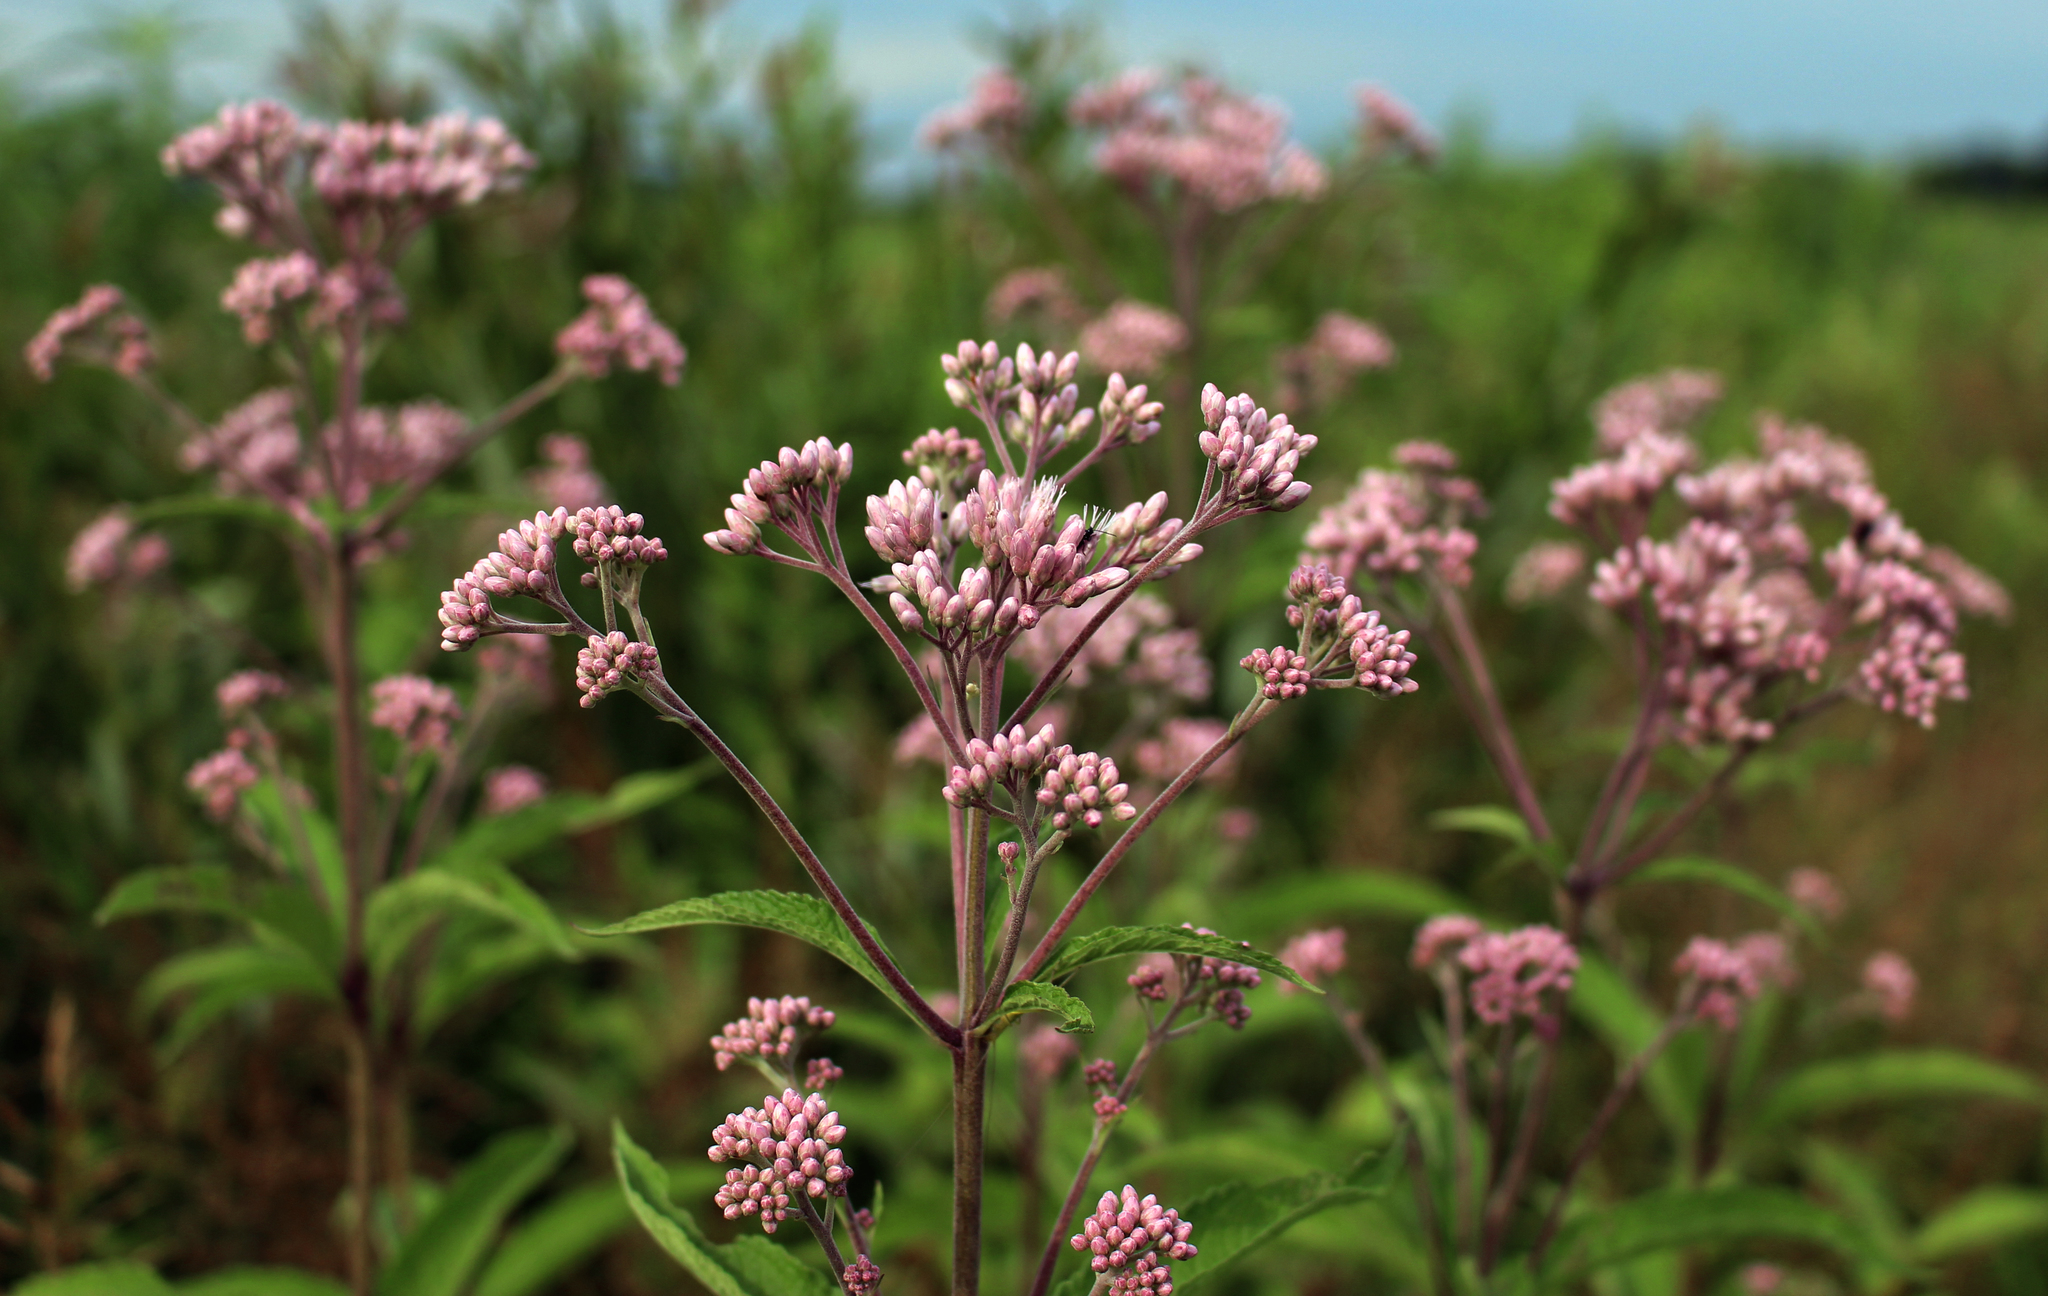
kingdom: Plantae
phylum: Tracheophyta
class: Magnoliopsida
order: Asterales
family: Asteraceae
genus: Eutrochium
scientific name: Eutrochium maculatum
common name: Spotted joe pye weed
